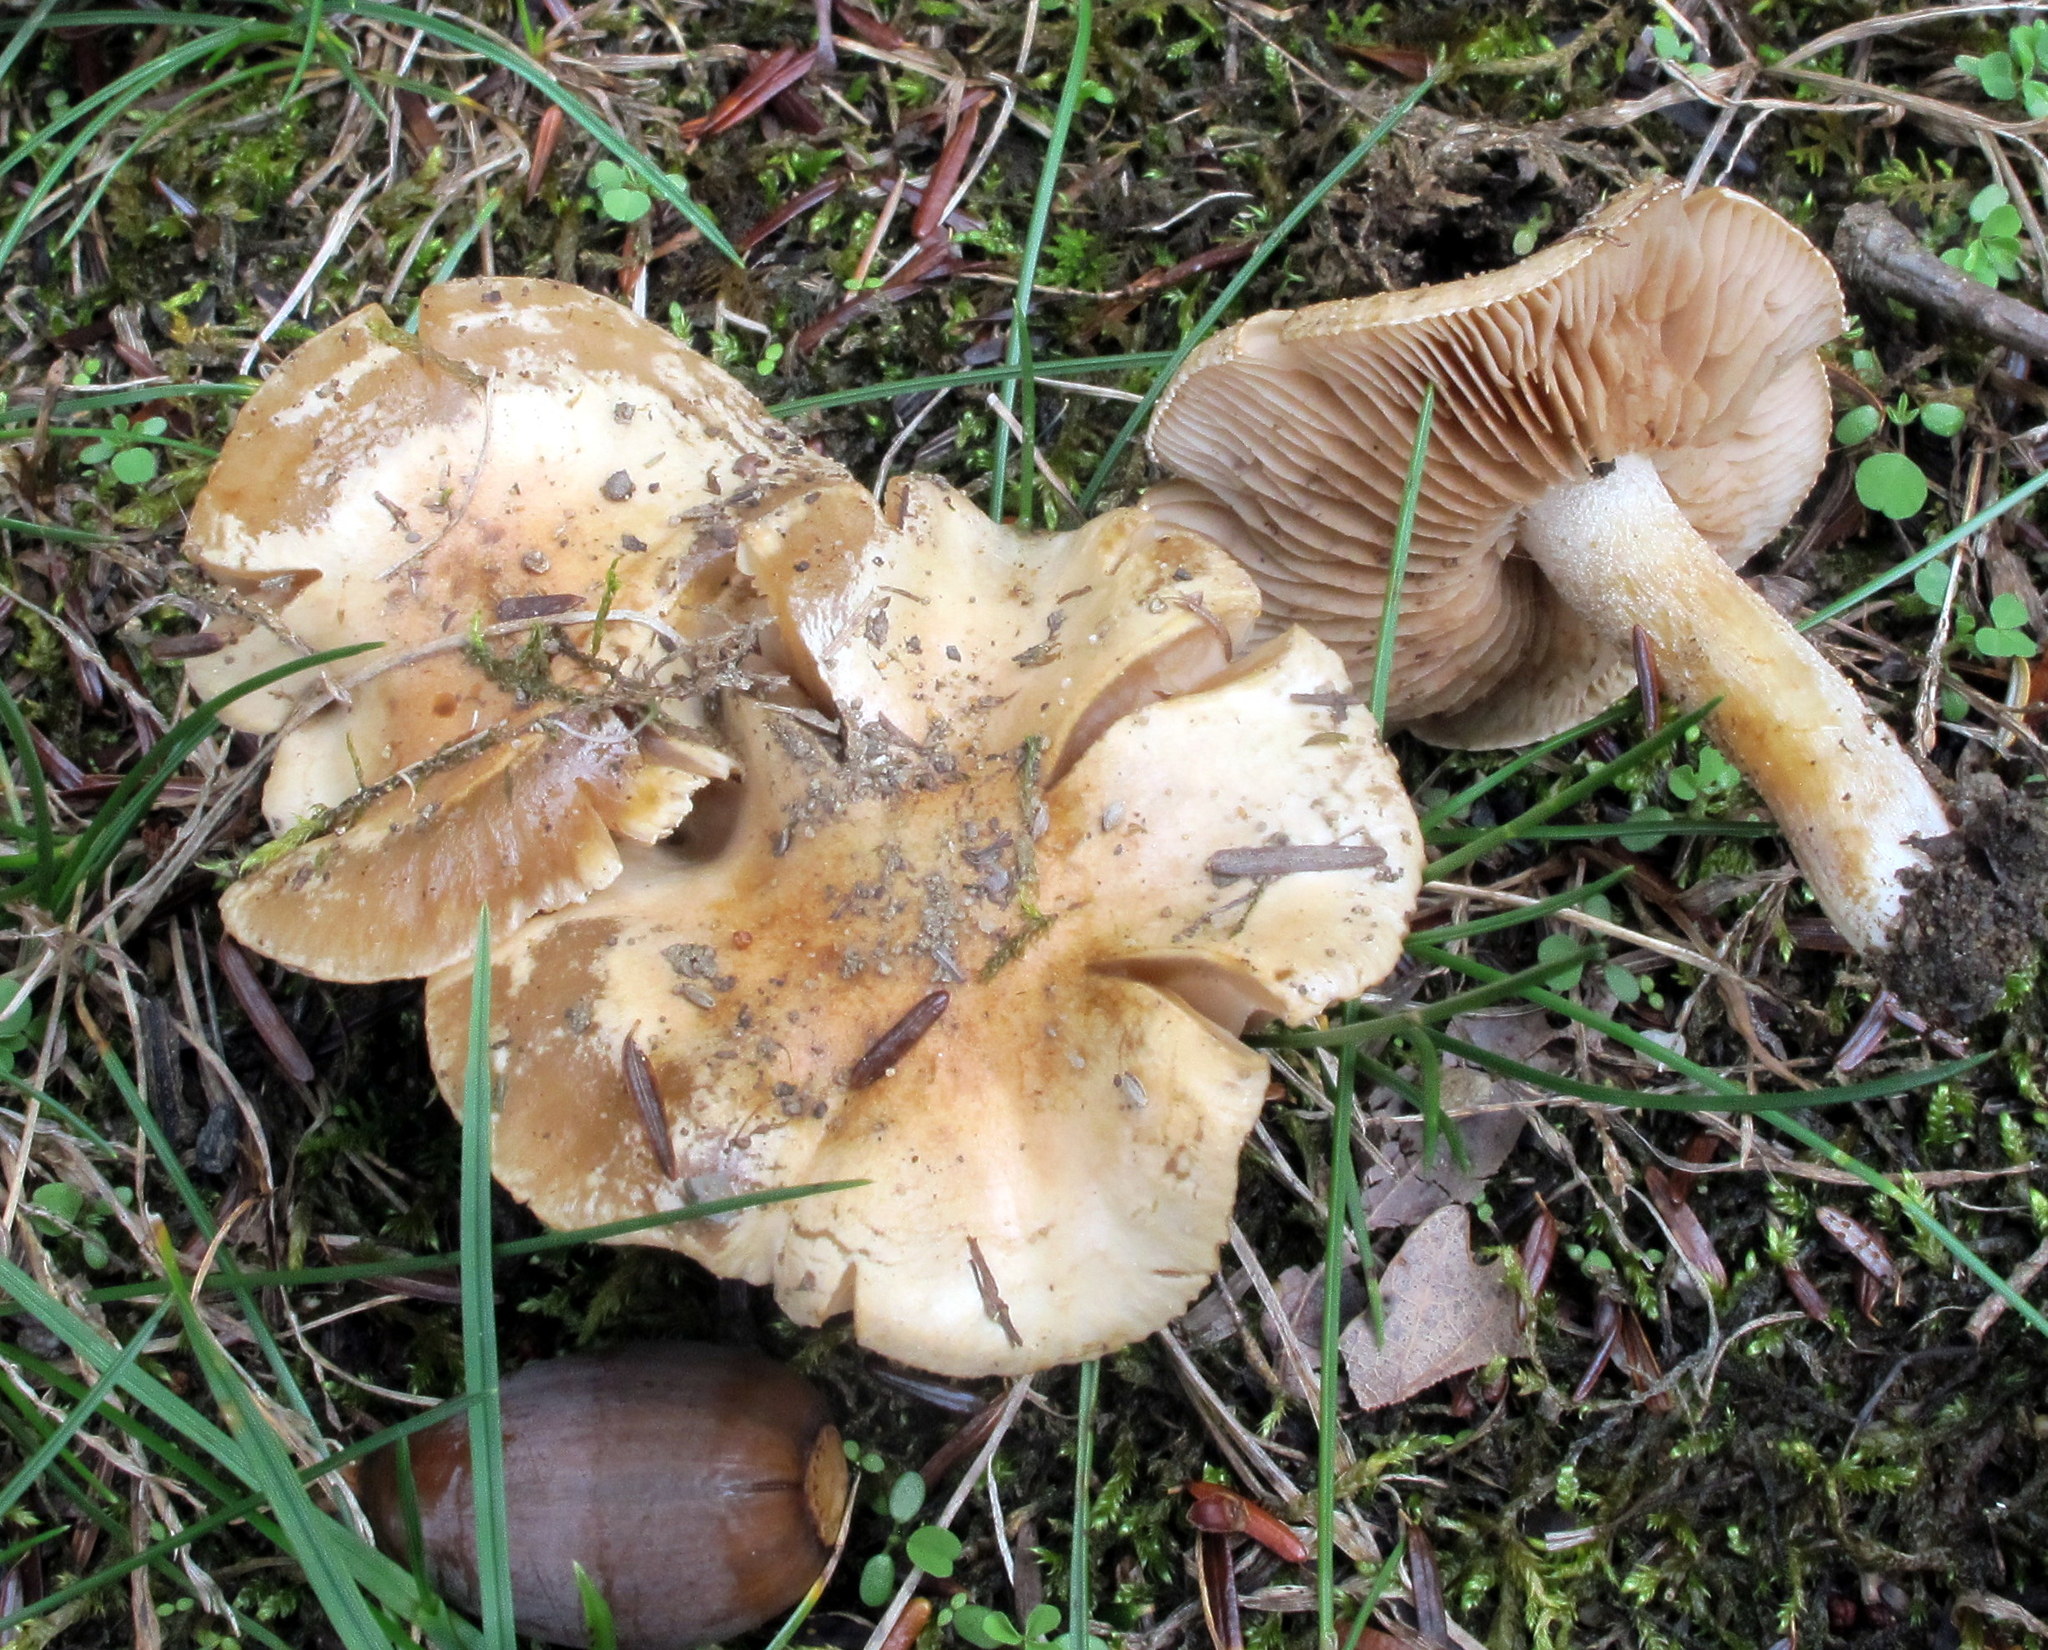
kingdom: Fungi
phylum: Basidiomycota
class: Agaricomycetes
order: Agaricales
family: Hymenogastraceae
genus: Hebeloma
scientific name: Hebeloma cavipes
